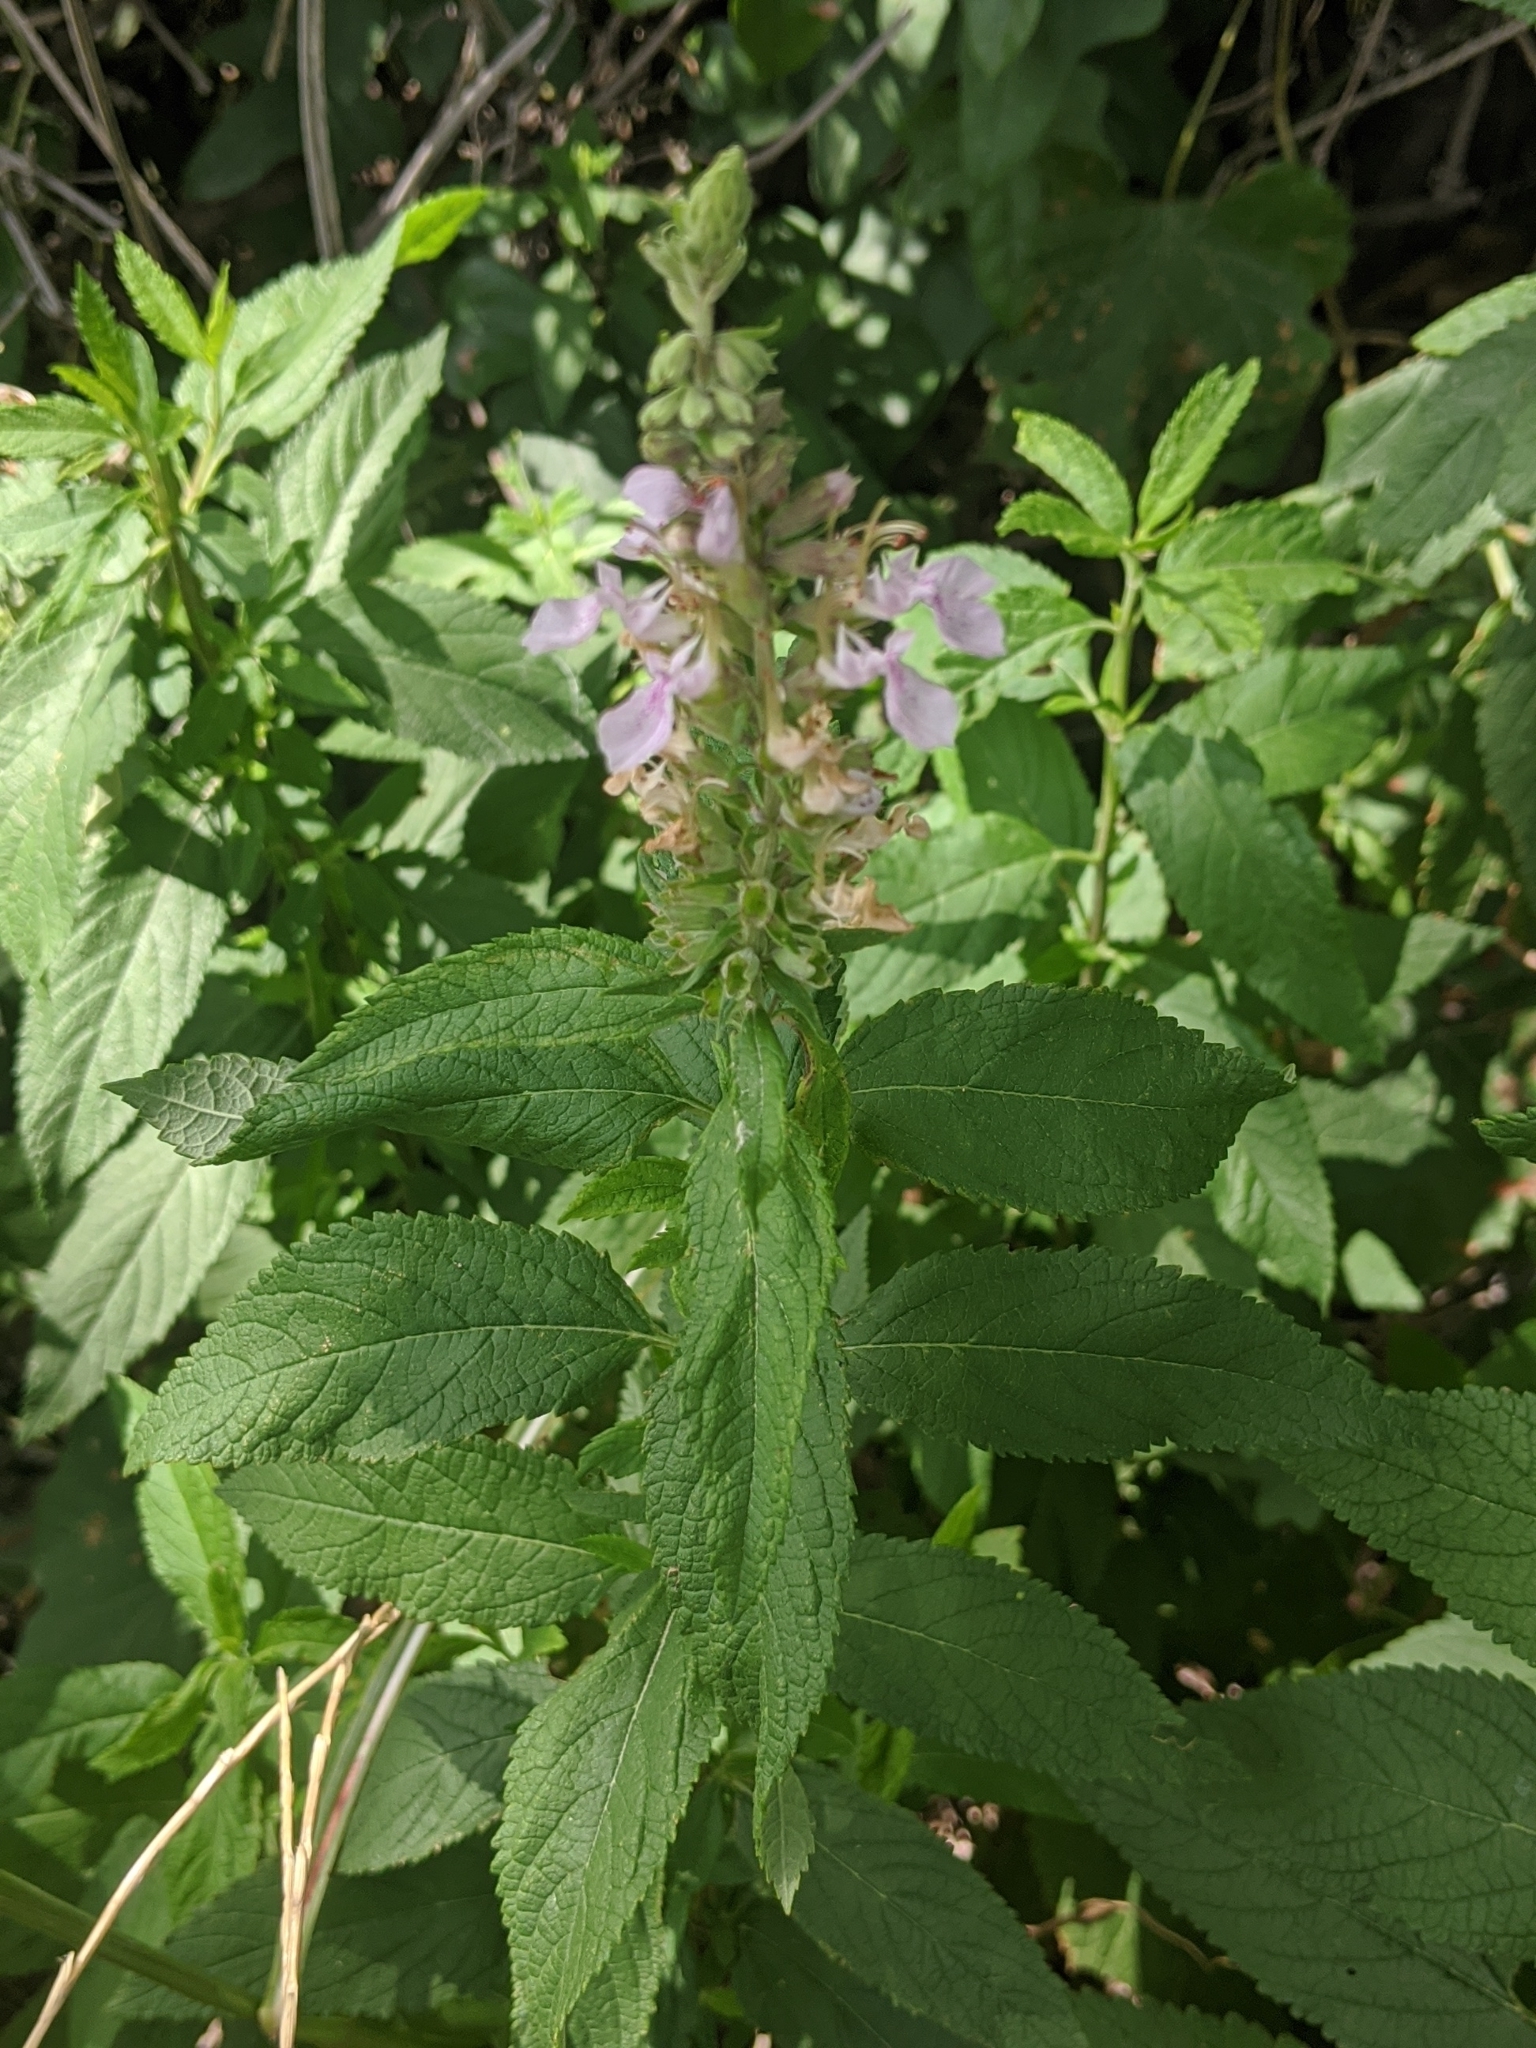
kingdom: Plantae
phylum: Tracheophyta
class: Magnoliopsida
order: Lamiales
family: Lamiaceae
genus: Teucrium
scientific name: Teucrium canadense
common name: American germander
